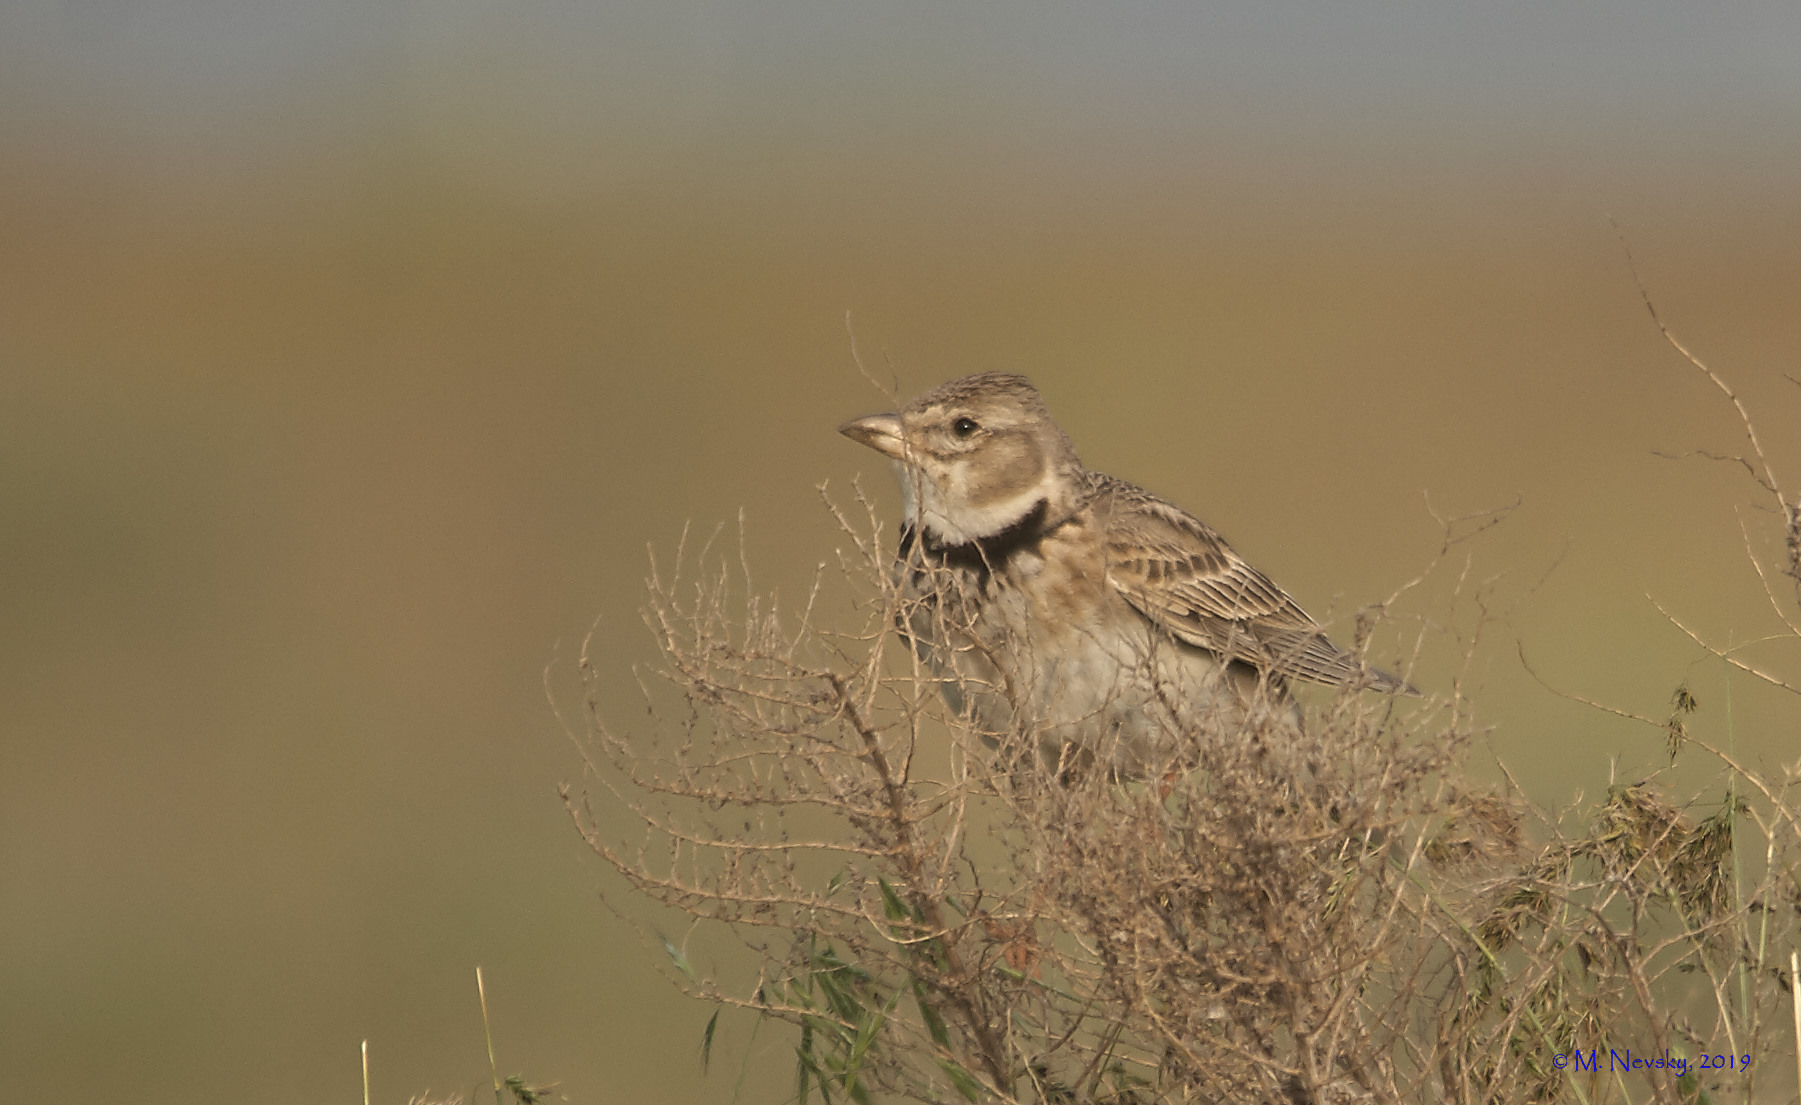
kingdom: Animalia
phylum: Chordata
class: Aves
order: Passeriformes
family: Alaudidae
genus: Melanocorypha
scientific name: Melanocorypha calandra
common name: Calandra lark
